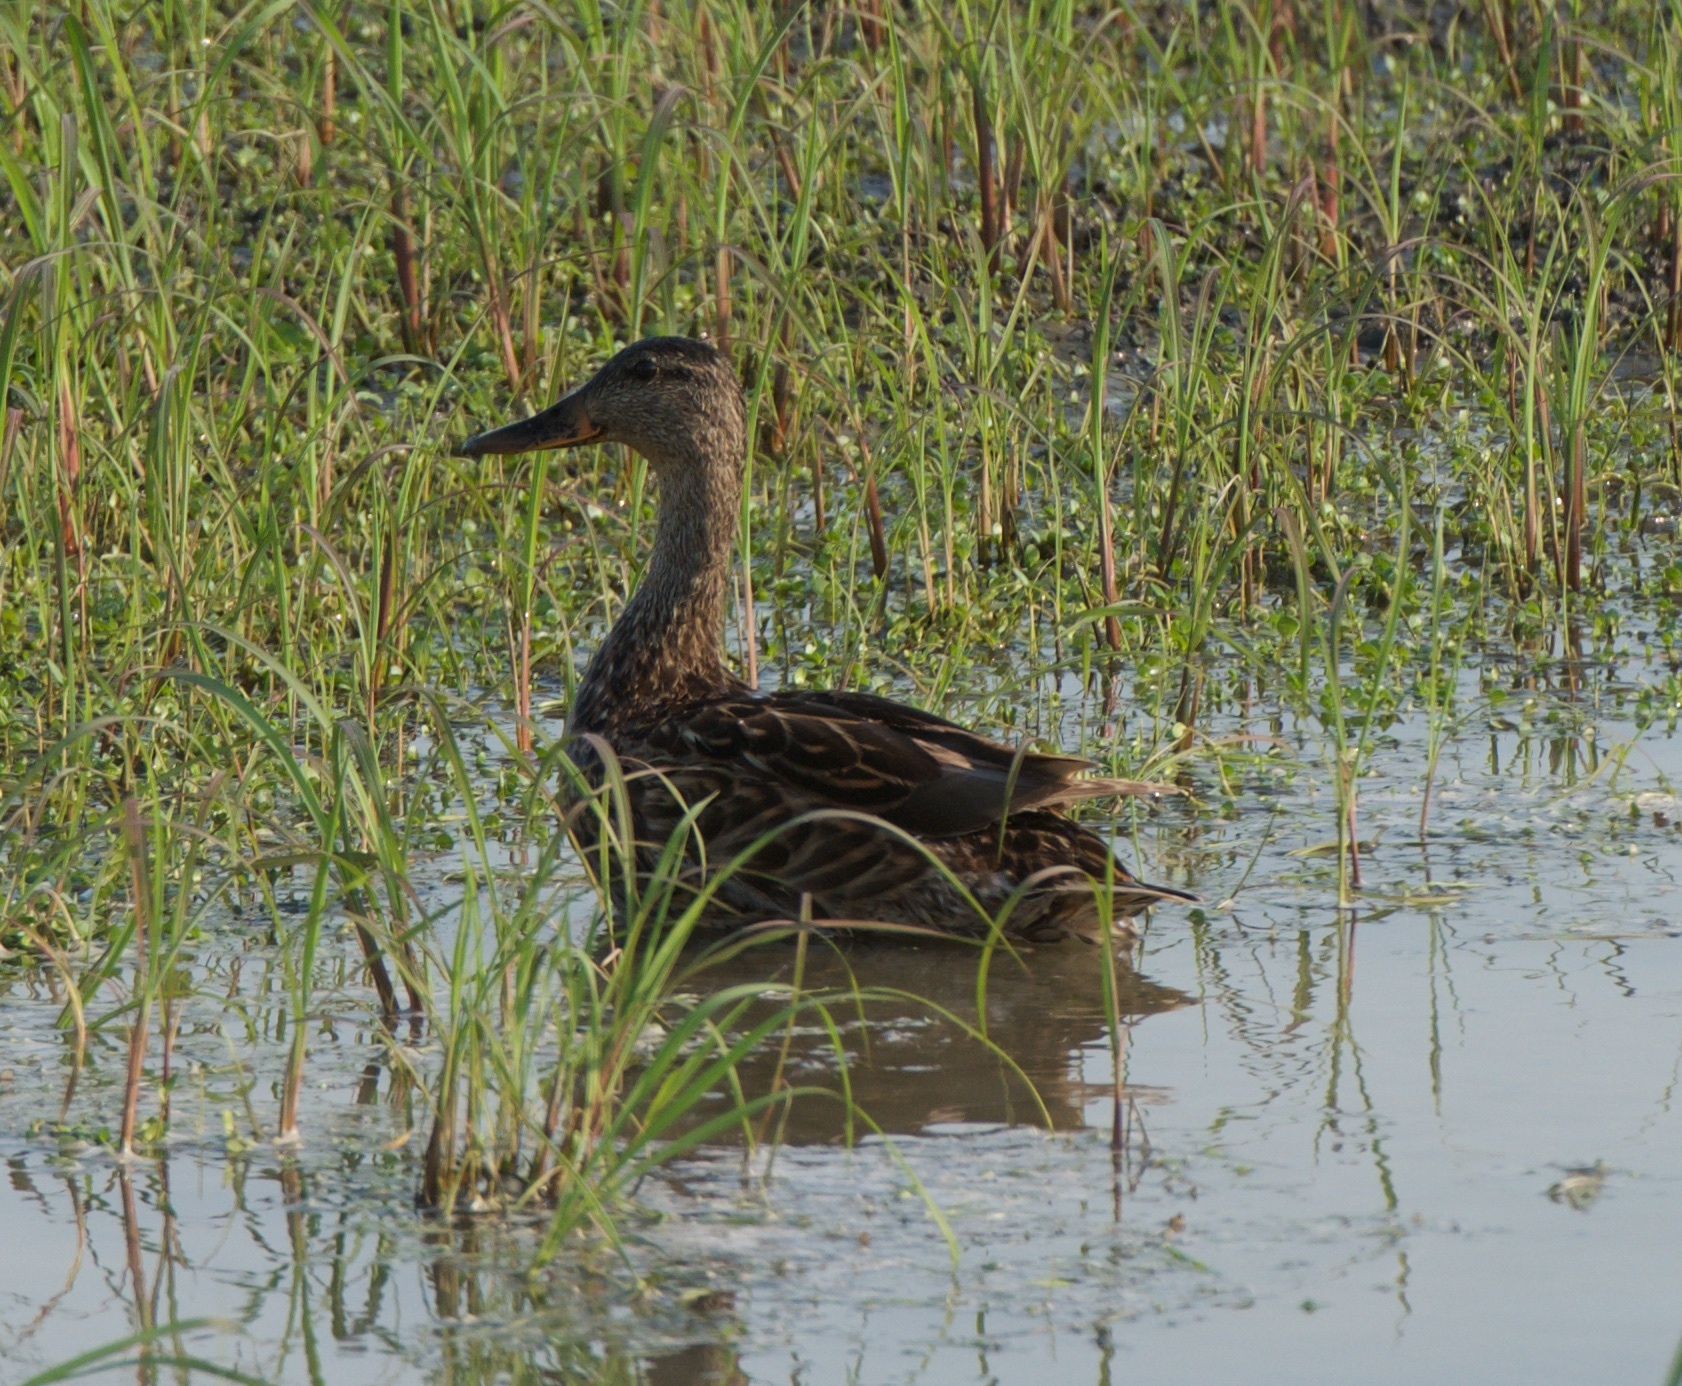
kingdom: Animalia
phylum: Chordata
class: Aves
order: Anseriformes
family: Anatidae
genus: Anas
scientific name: Anas platyrhynchos
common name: Mallard
